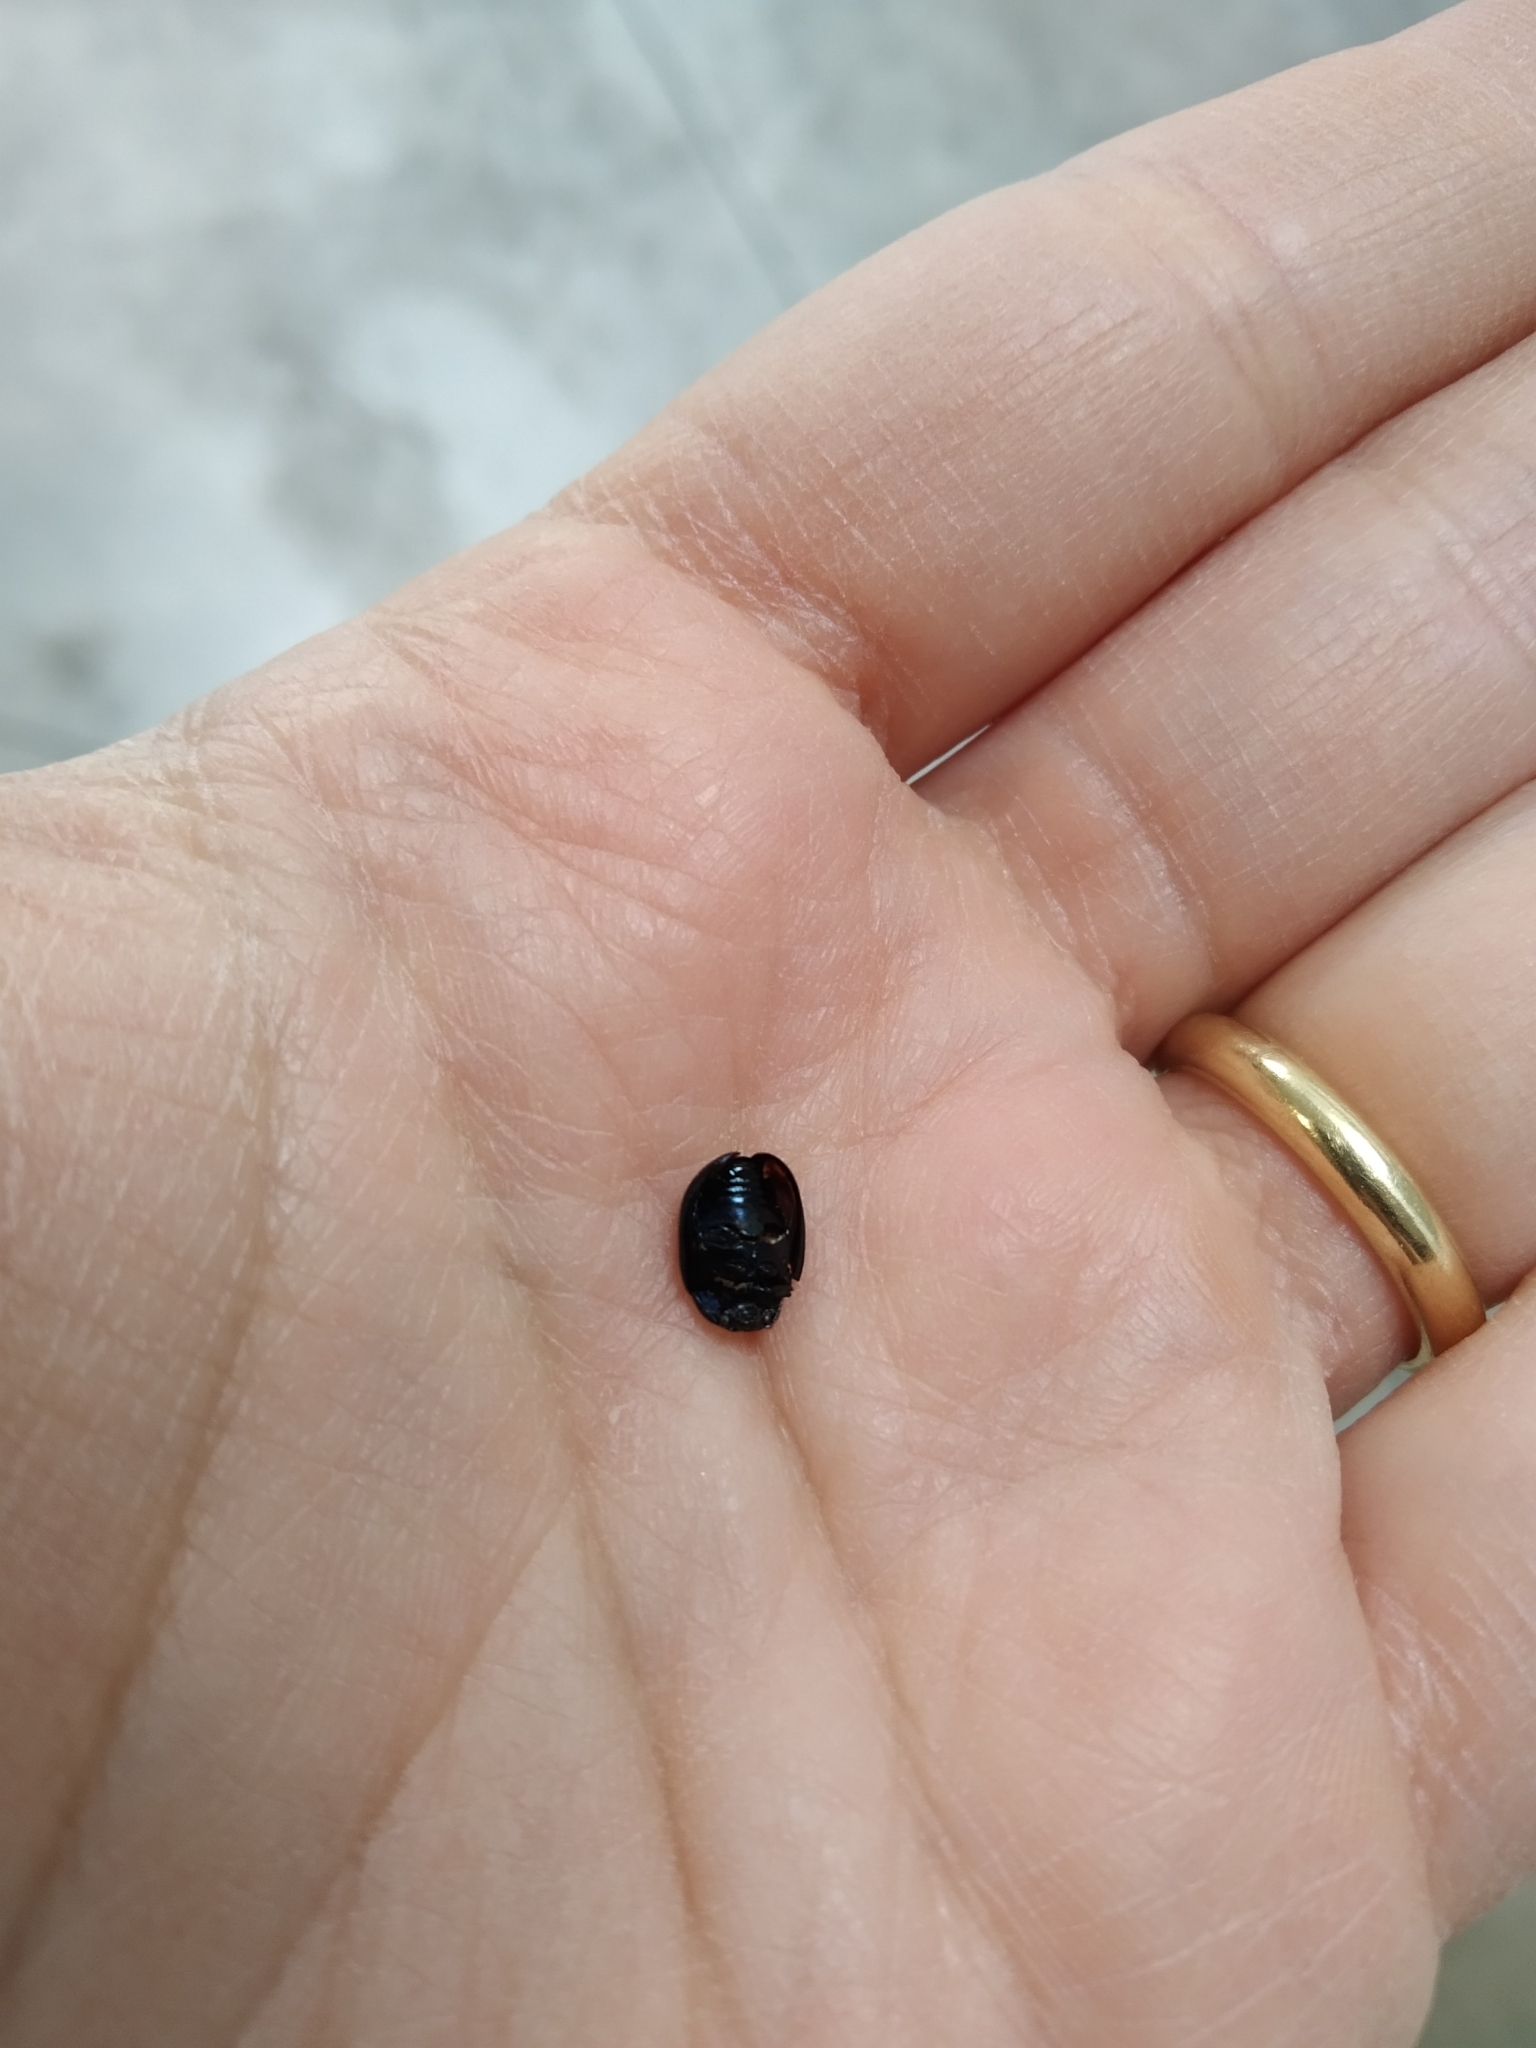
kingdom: Animalia
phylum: Arthropoda
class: Insecta
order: Coleoptera
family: Chrysomelidae
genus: Plagiodera
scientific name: Plagiodera versicolora
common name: Imported willow leaf beetle
